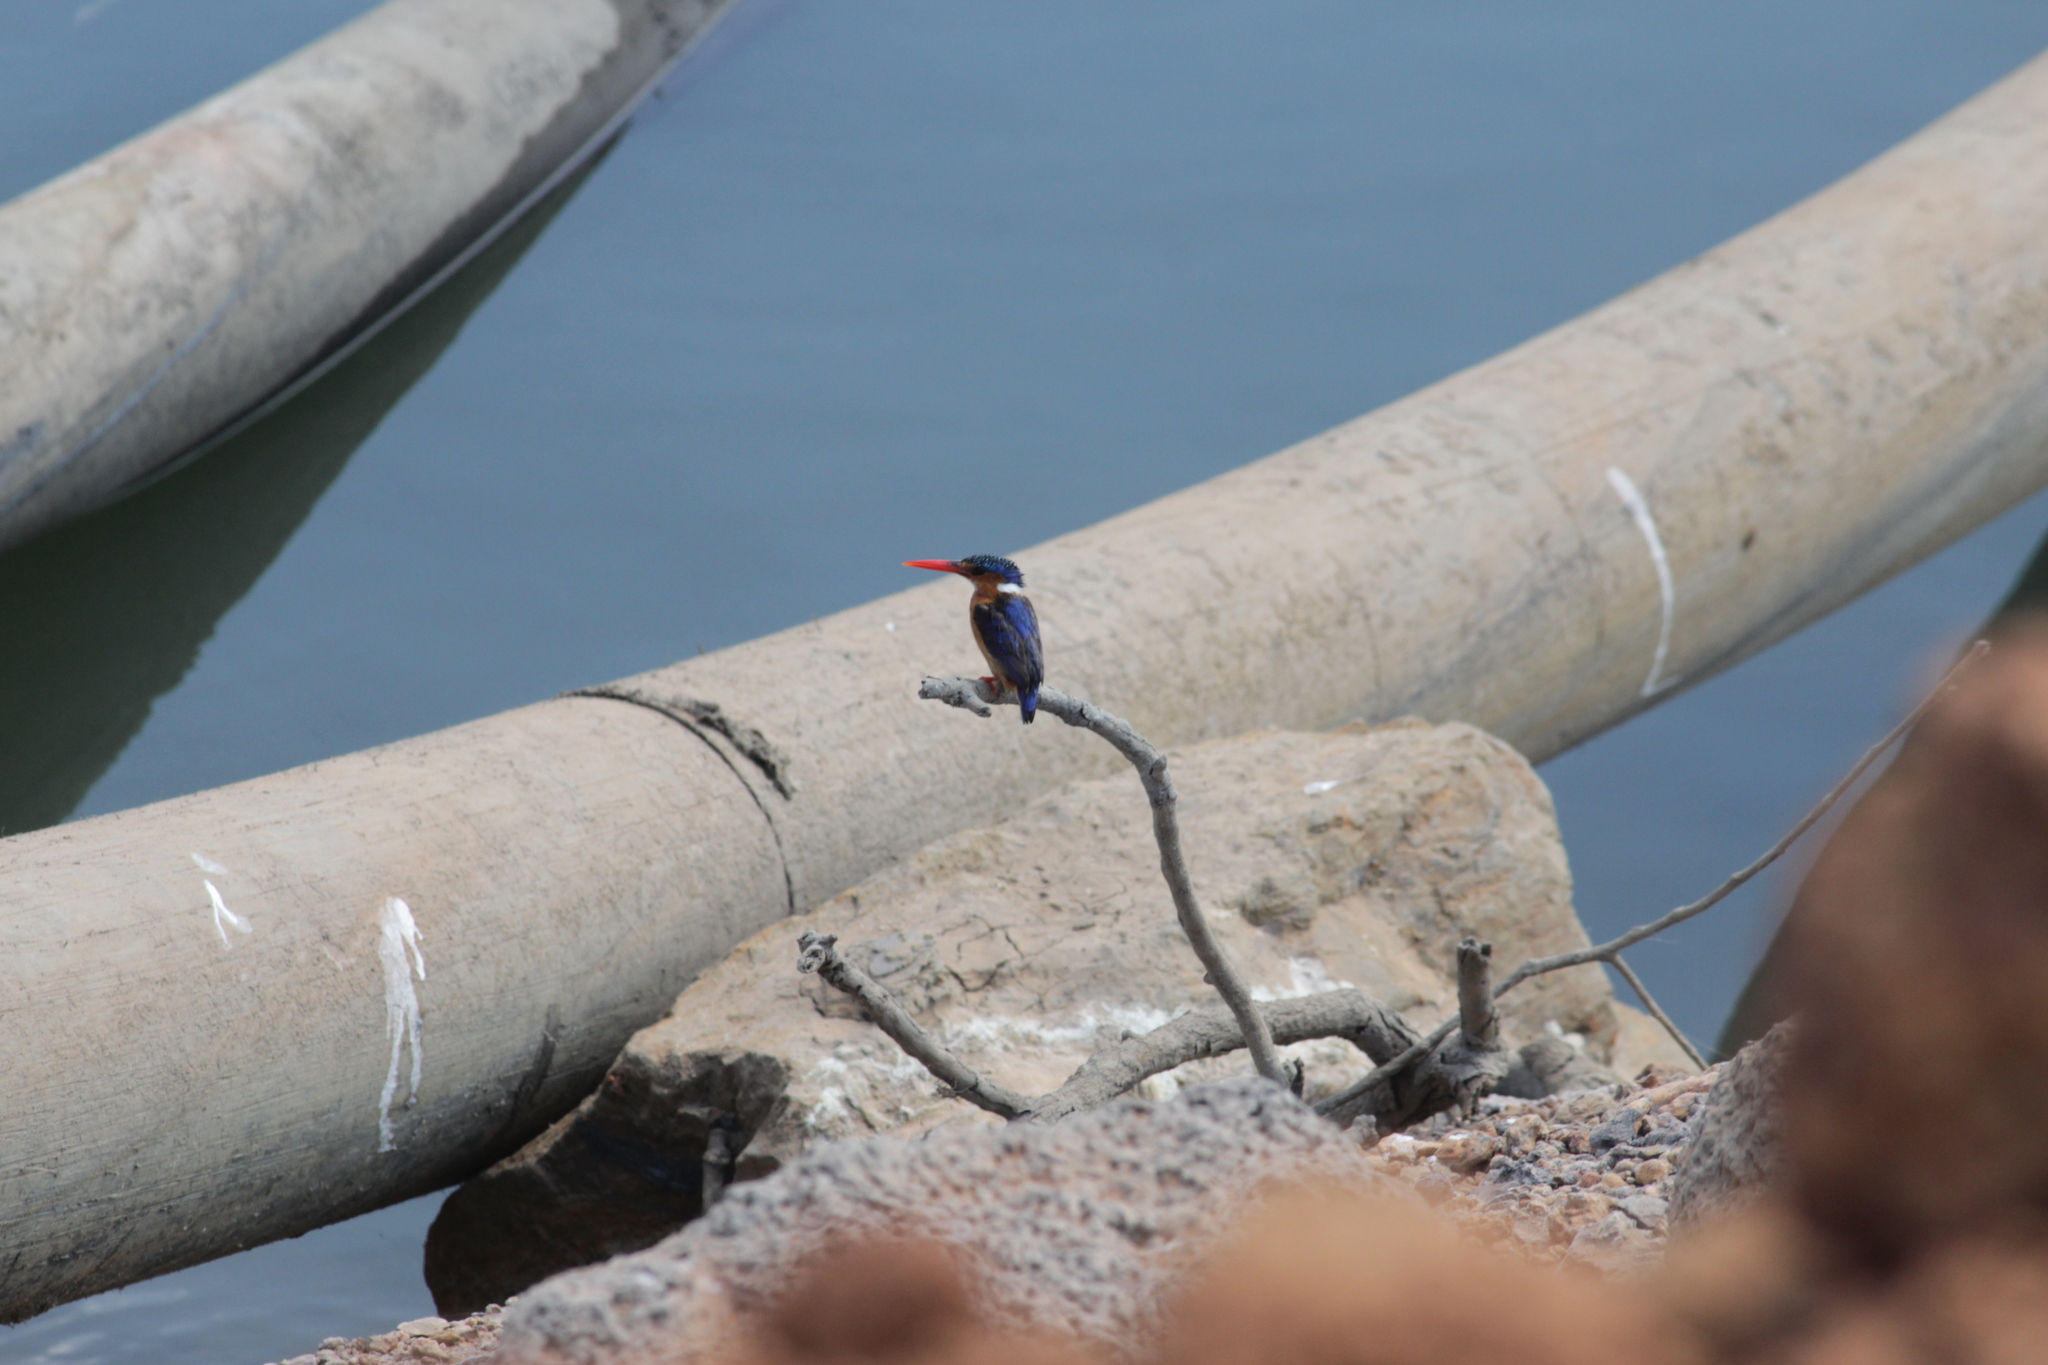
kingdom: Animalia
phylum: Chordata
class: Aves
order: Coraciiformes
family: Alcedinidae
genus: Corythornis
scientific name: Corythornis cristatus
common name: Malachite kingfisher
